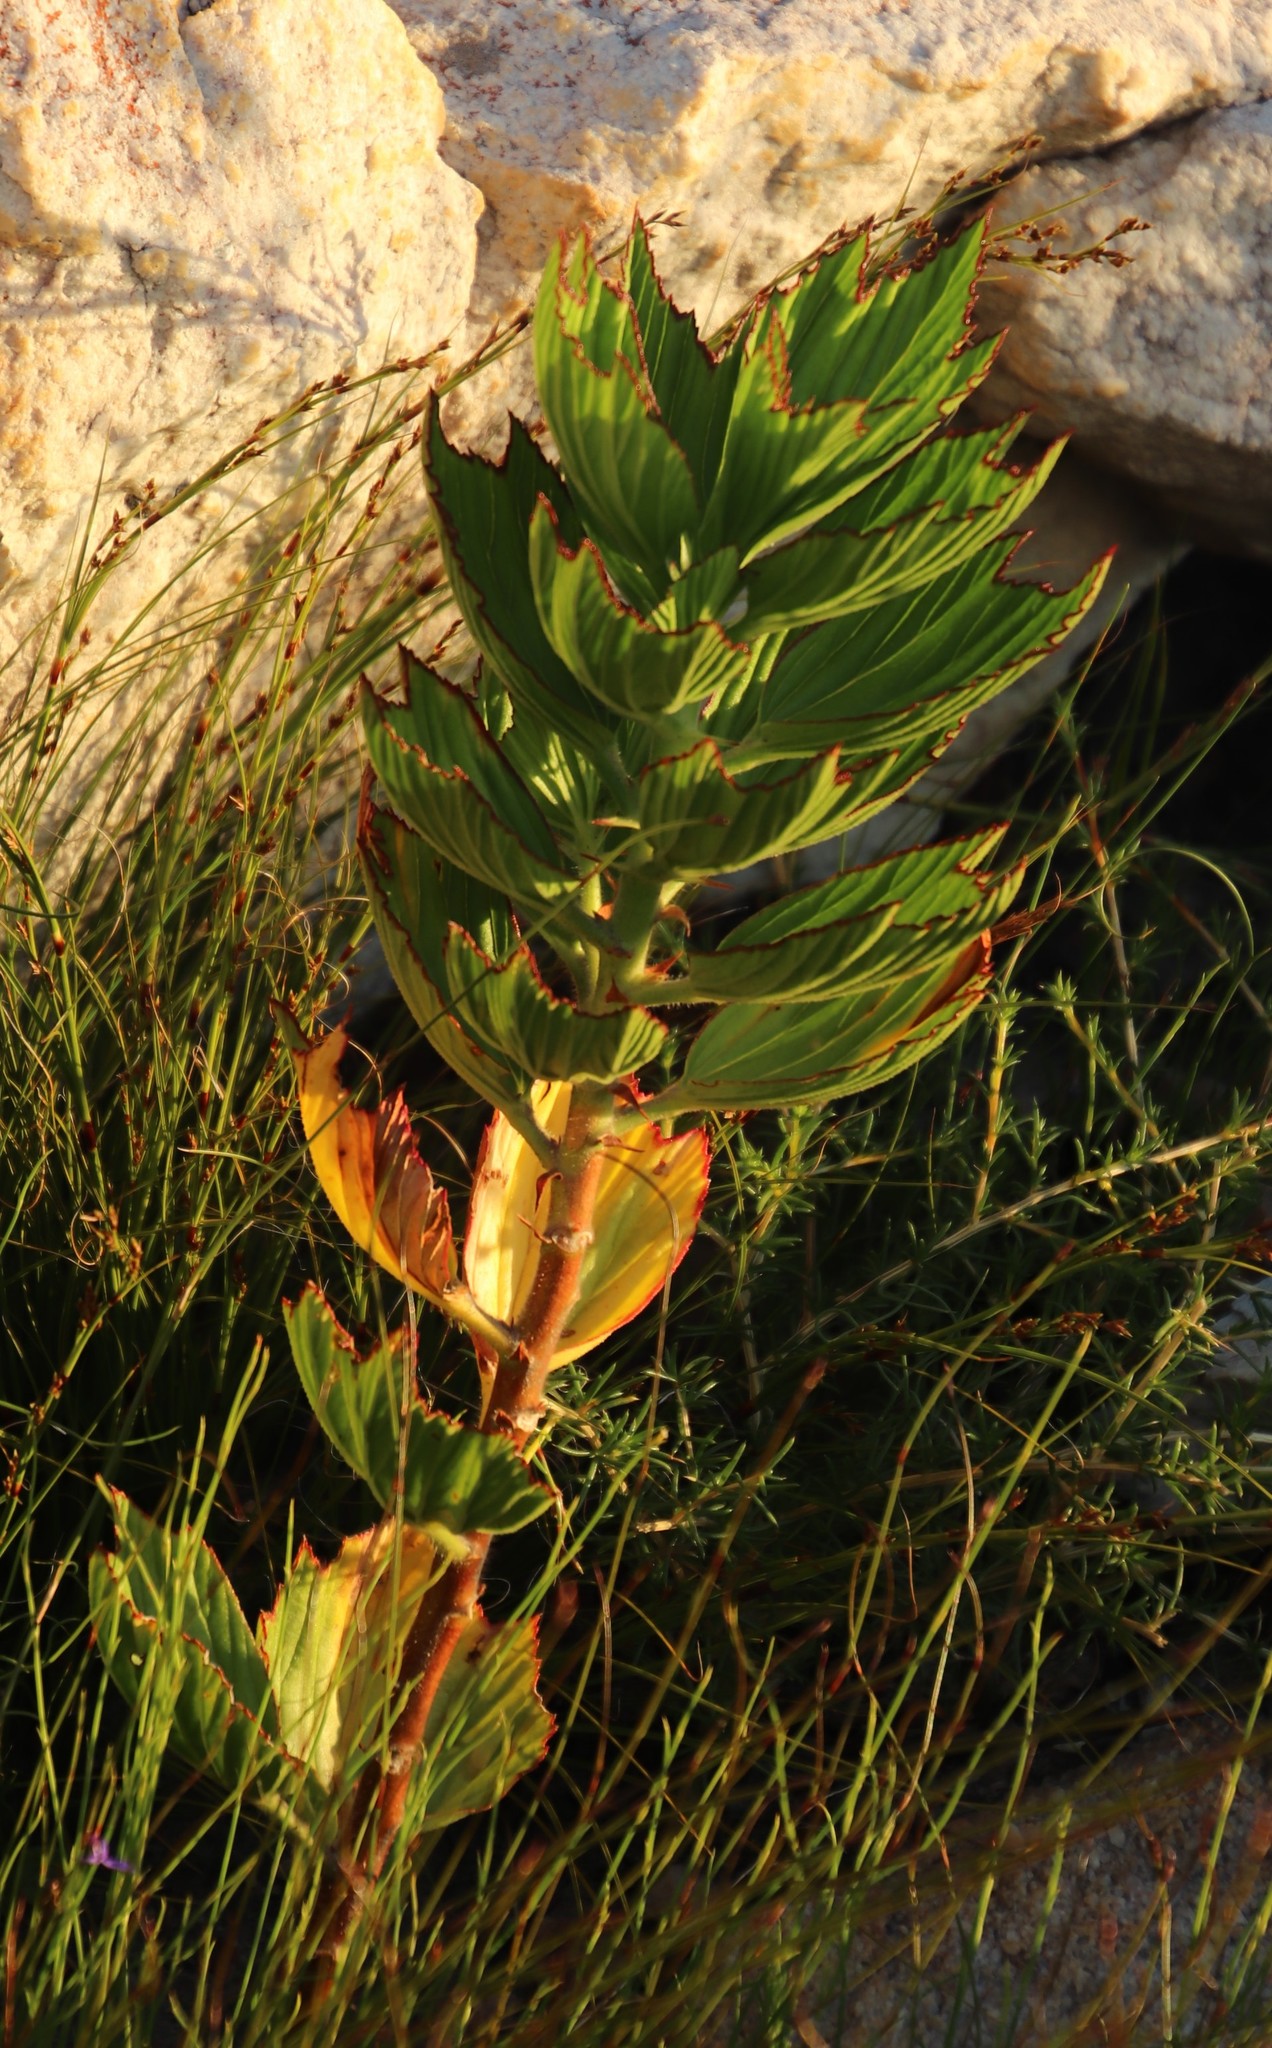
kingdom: Plantae
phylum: Tracheophyta
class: Magnoliopsida
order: Geraniales
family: Geraniaceae
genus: Pelargonium
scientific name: Pelargonium cucullatum
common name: Tree pelargonium
